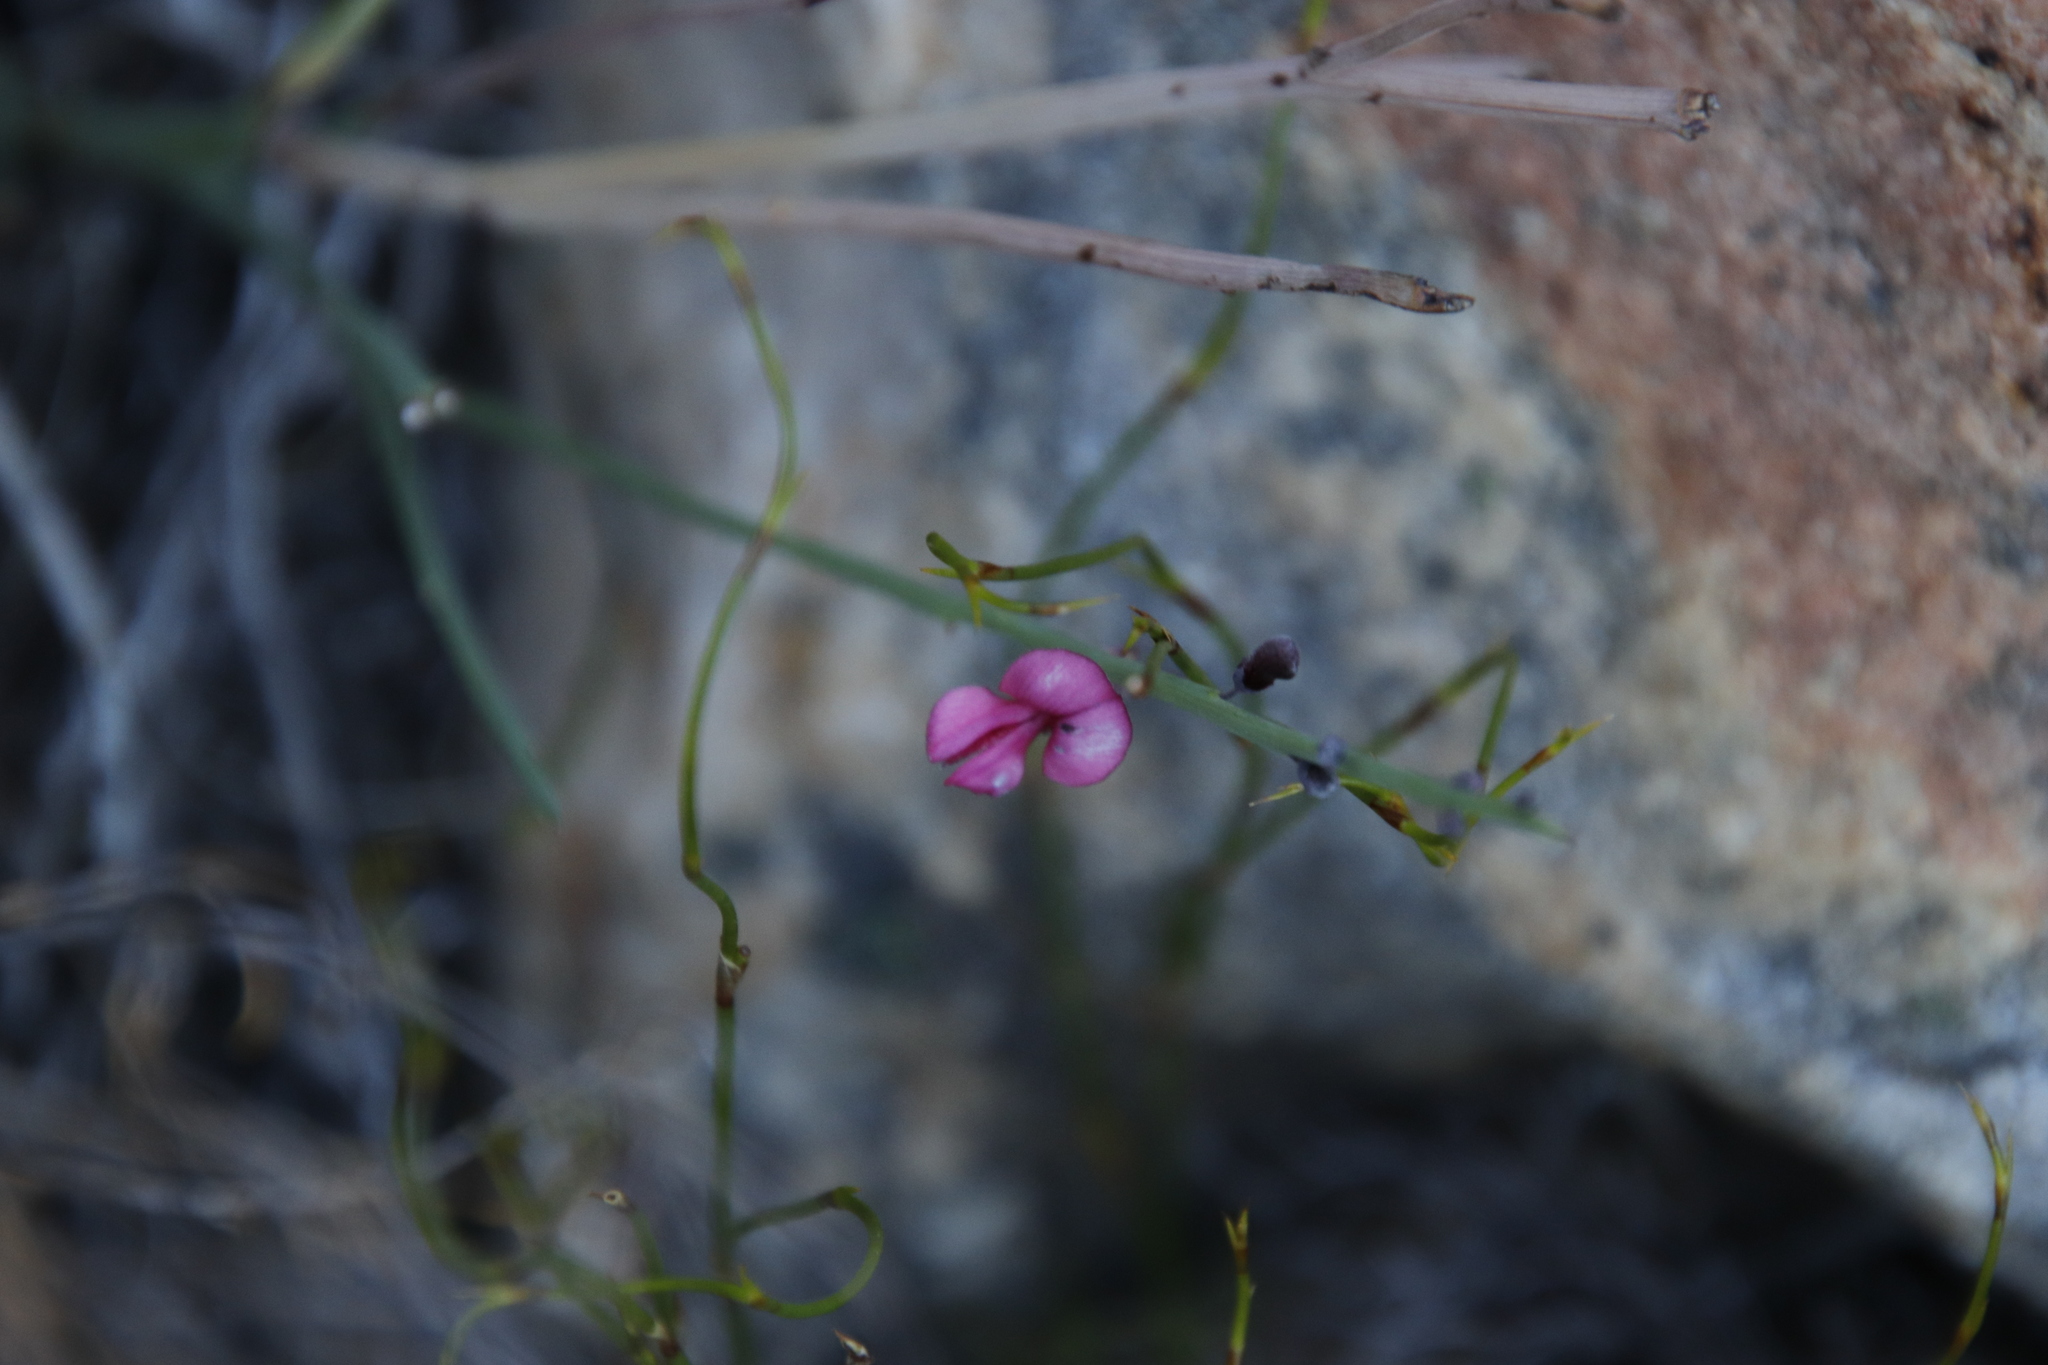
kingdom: Plantae
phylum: Tracheophyta
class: Magnoliopsida
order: Fabales
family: Fabaceae
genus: Indigofera
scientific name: Indigofera gifbergensis
